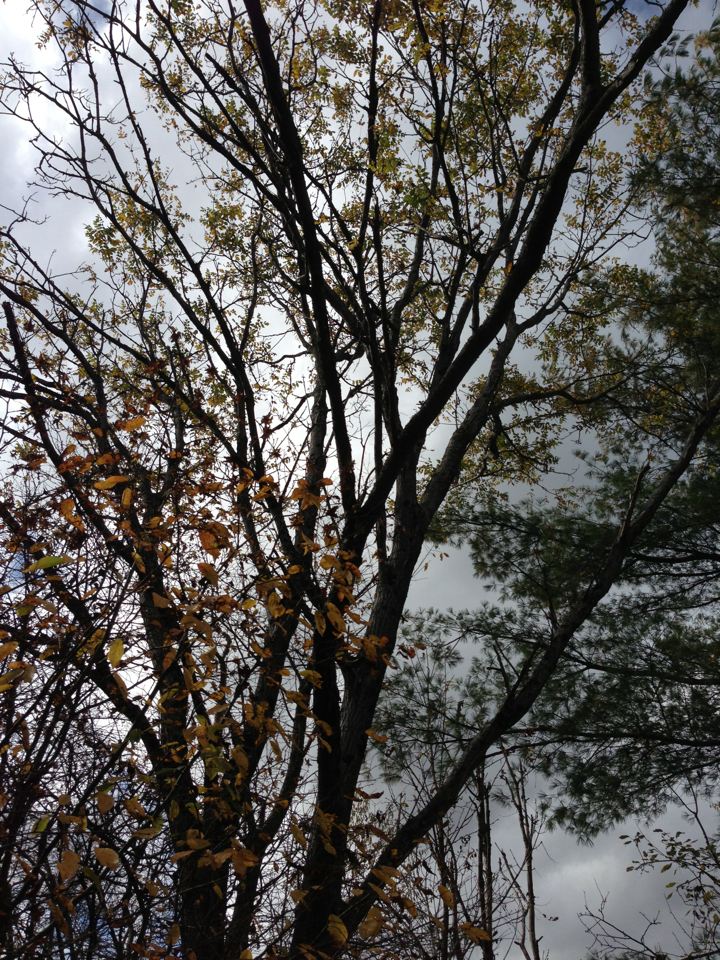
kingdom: Plantae
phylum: Tracheophyta
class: Magnoliopsida
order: Fagales
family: Juglandaceae
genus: Juglans
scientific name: Juglans cinerea
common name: Butternut
